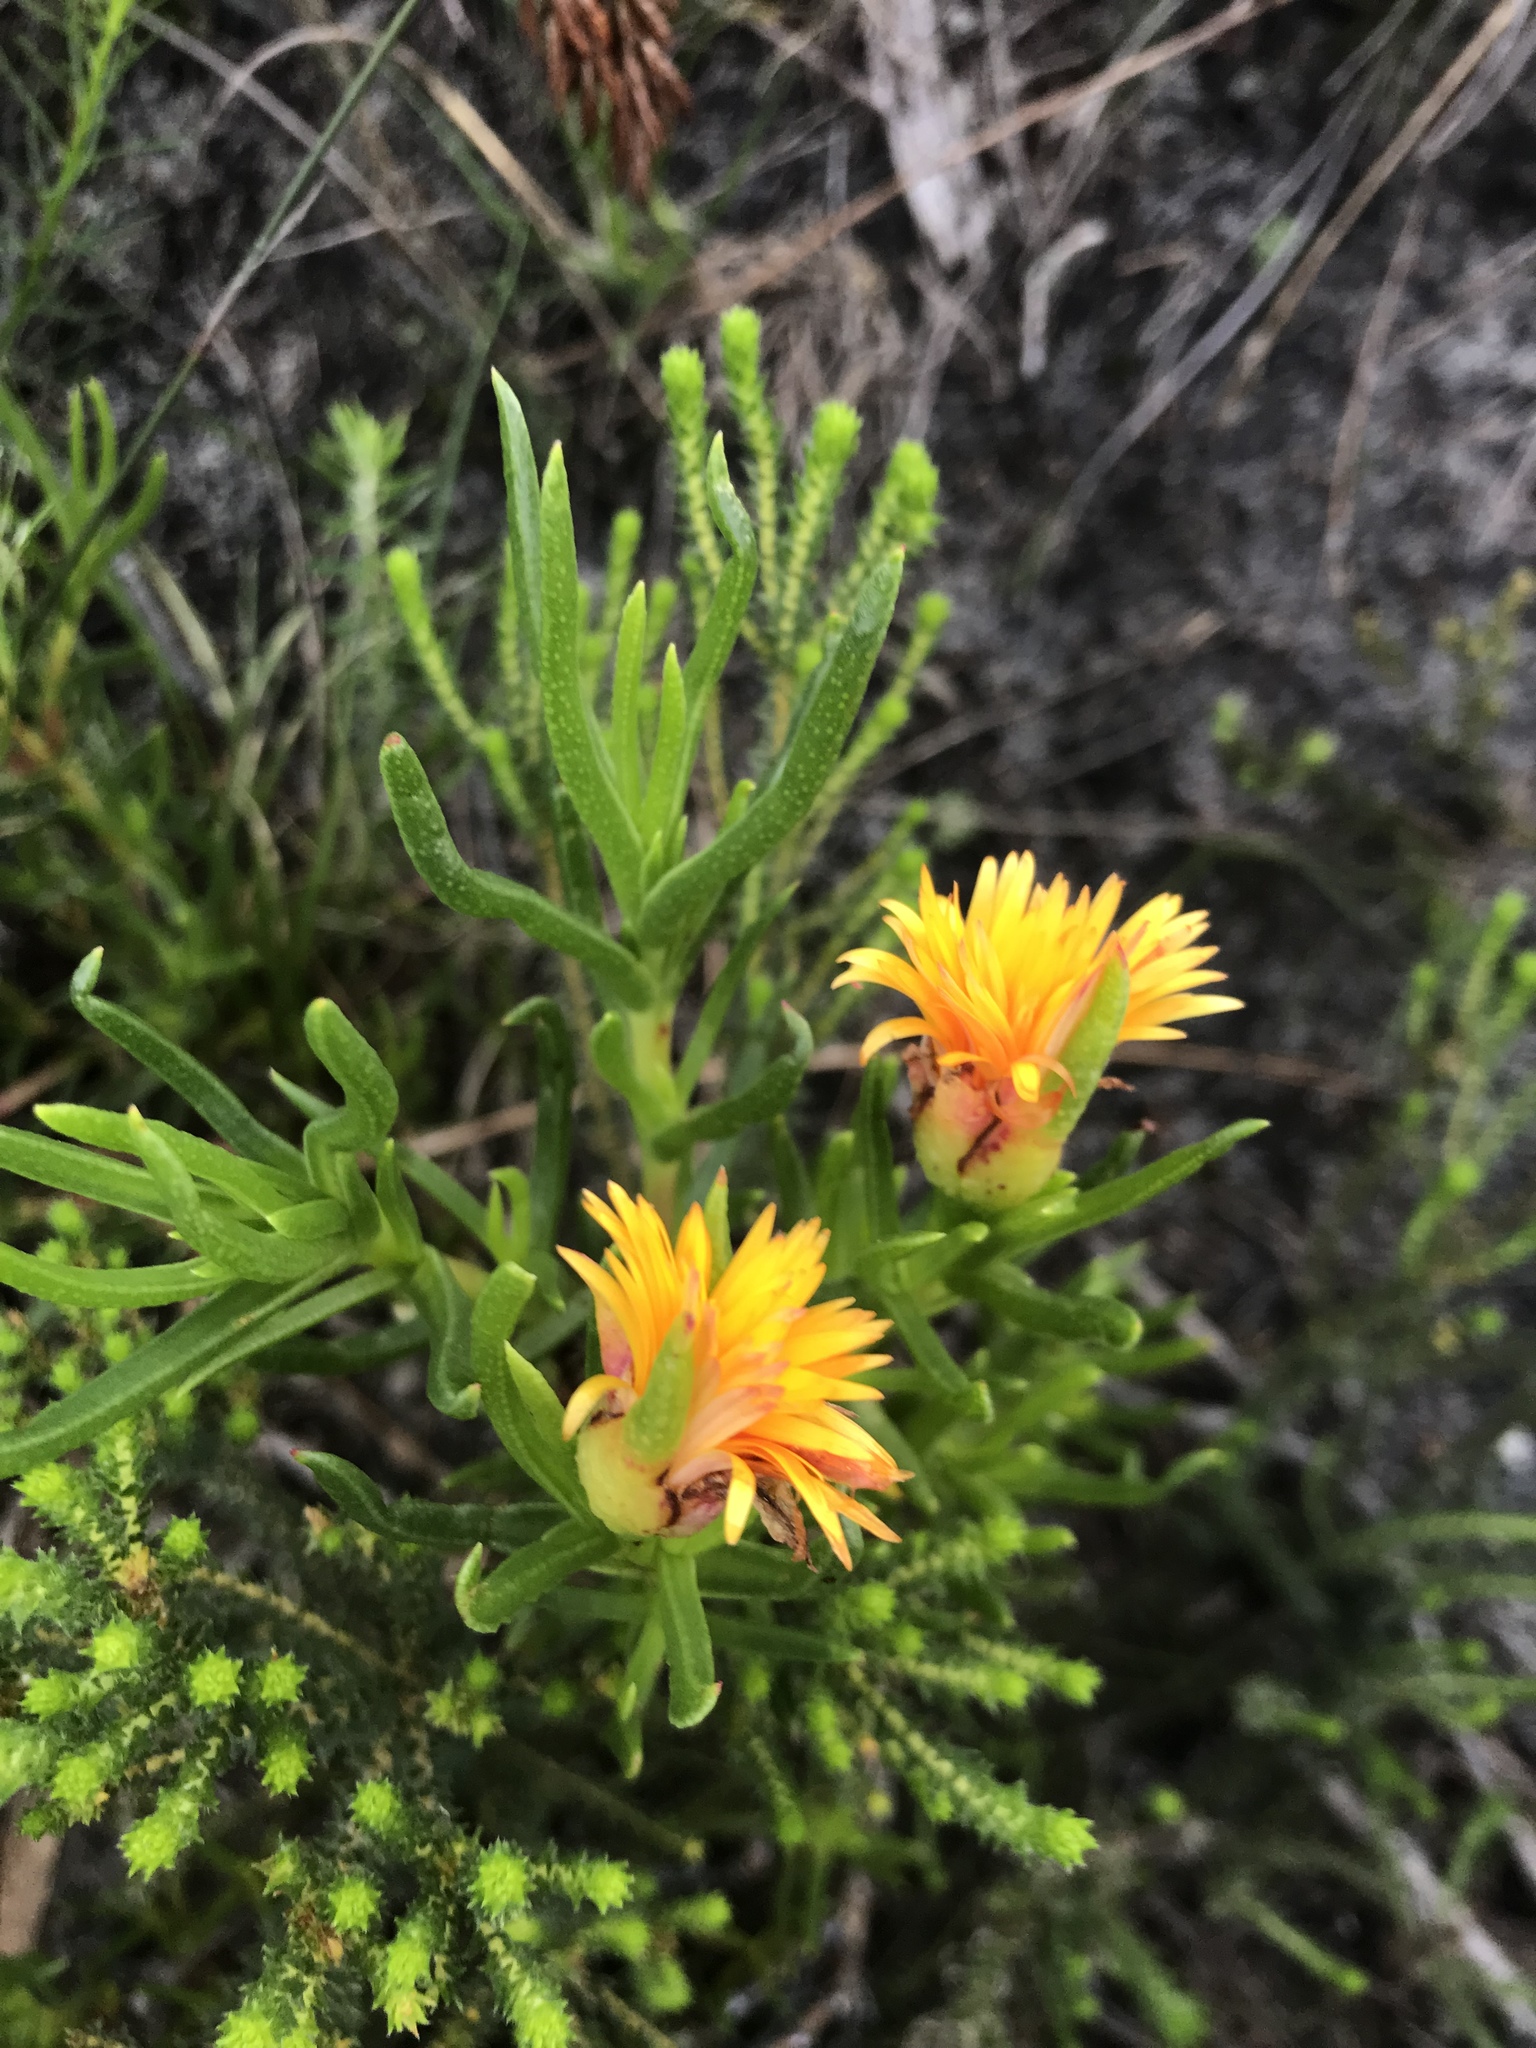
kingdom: Plantae
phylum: Tracheophyta
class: Magnoliopsida
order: Caryophyllales
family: Aizoaceae
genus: Lampranthus
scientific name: Lampranthus bicolor
